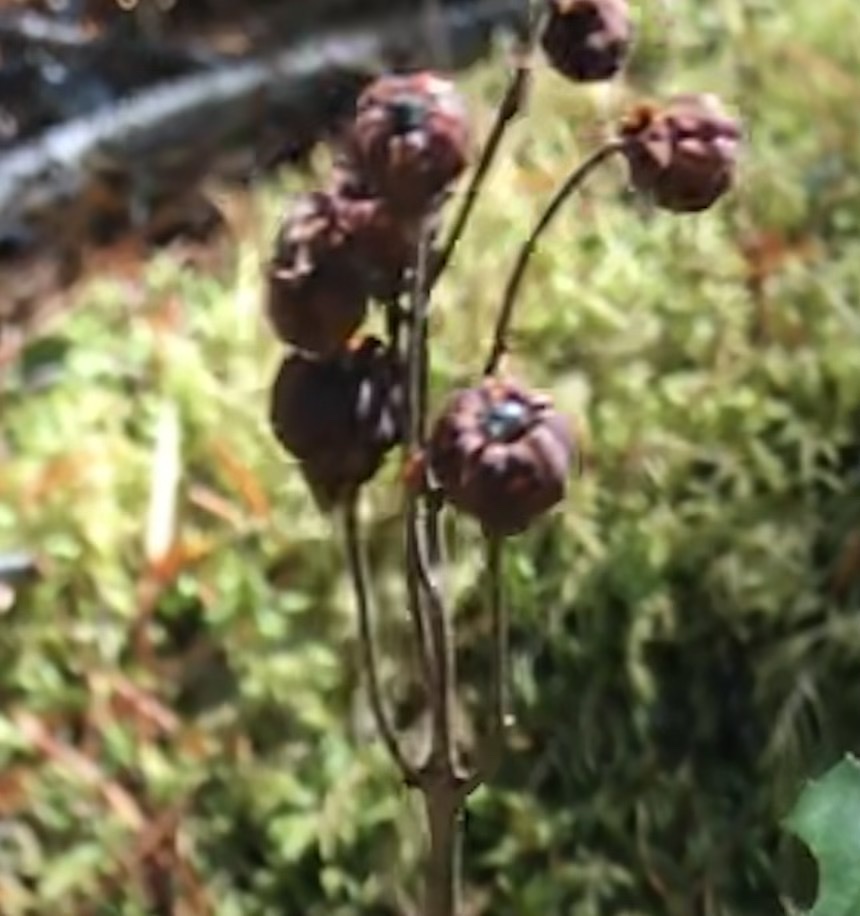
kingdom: Plantae
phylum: Tracheophyta
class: Magnoliopsida
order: Ericales
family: Ericaceae
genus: Chimaphila
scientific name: Chimaphila umbellata
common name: Pipsissewa
